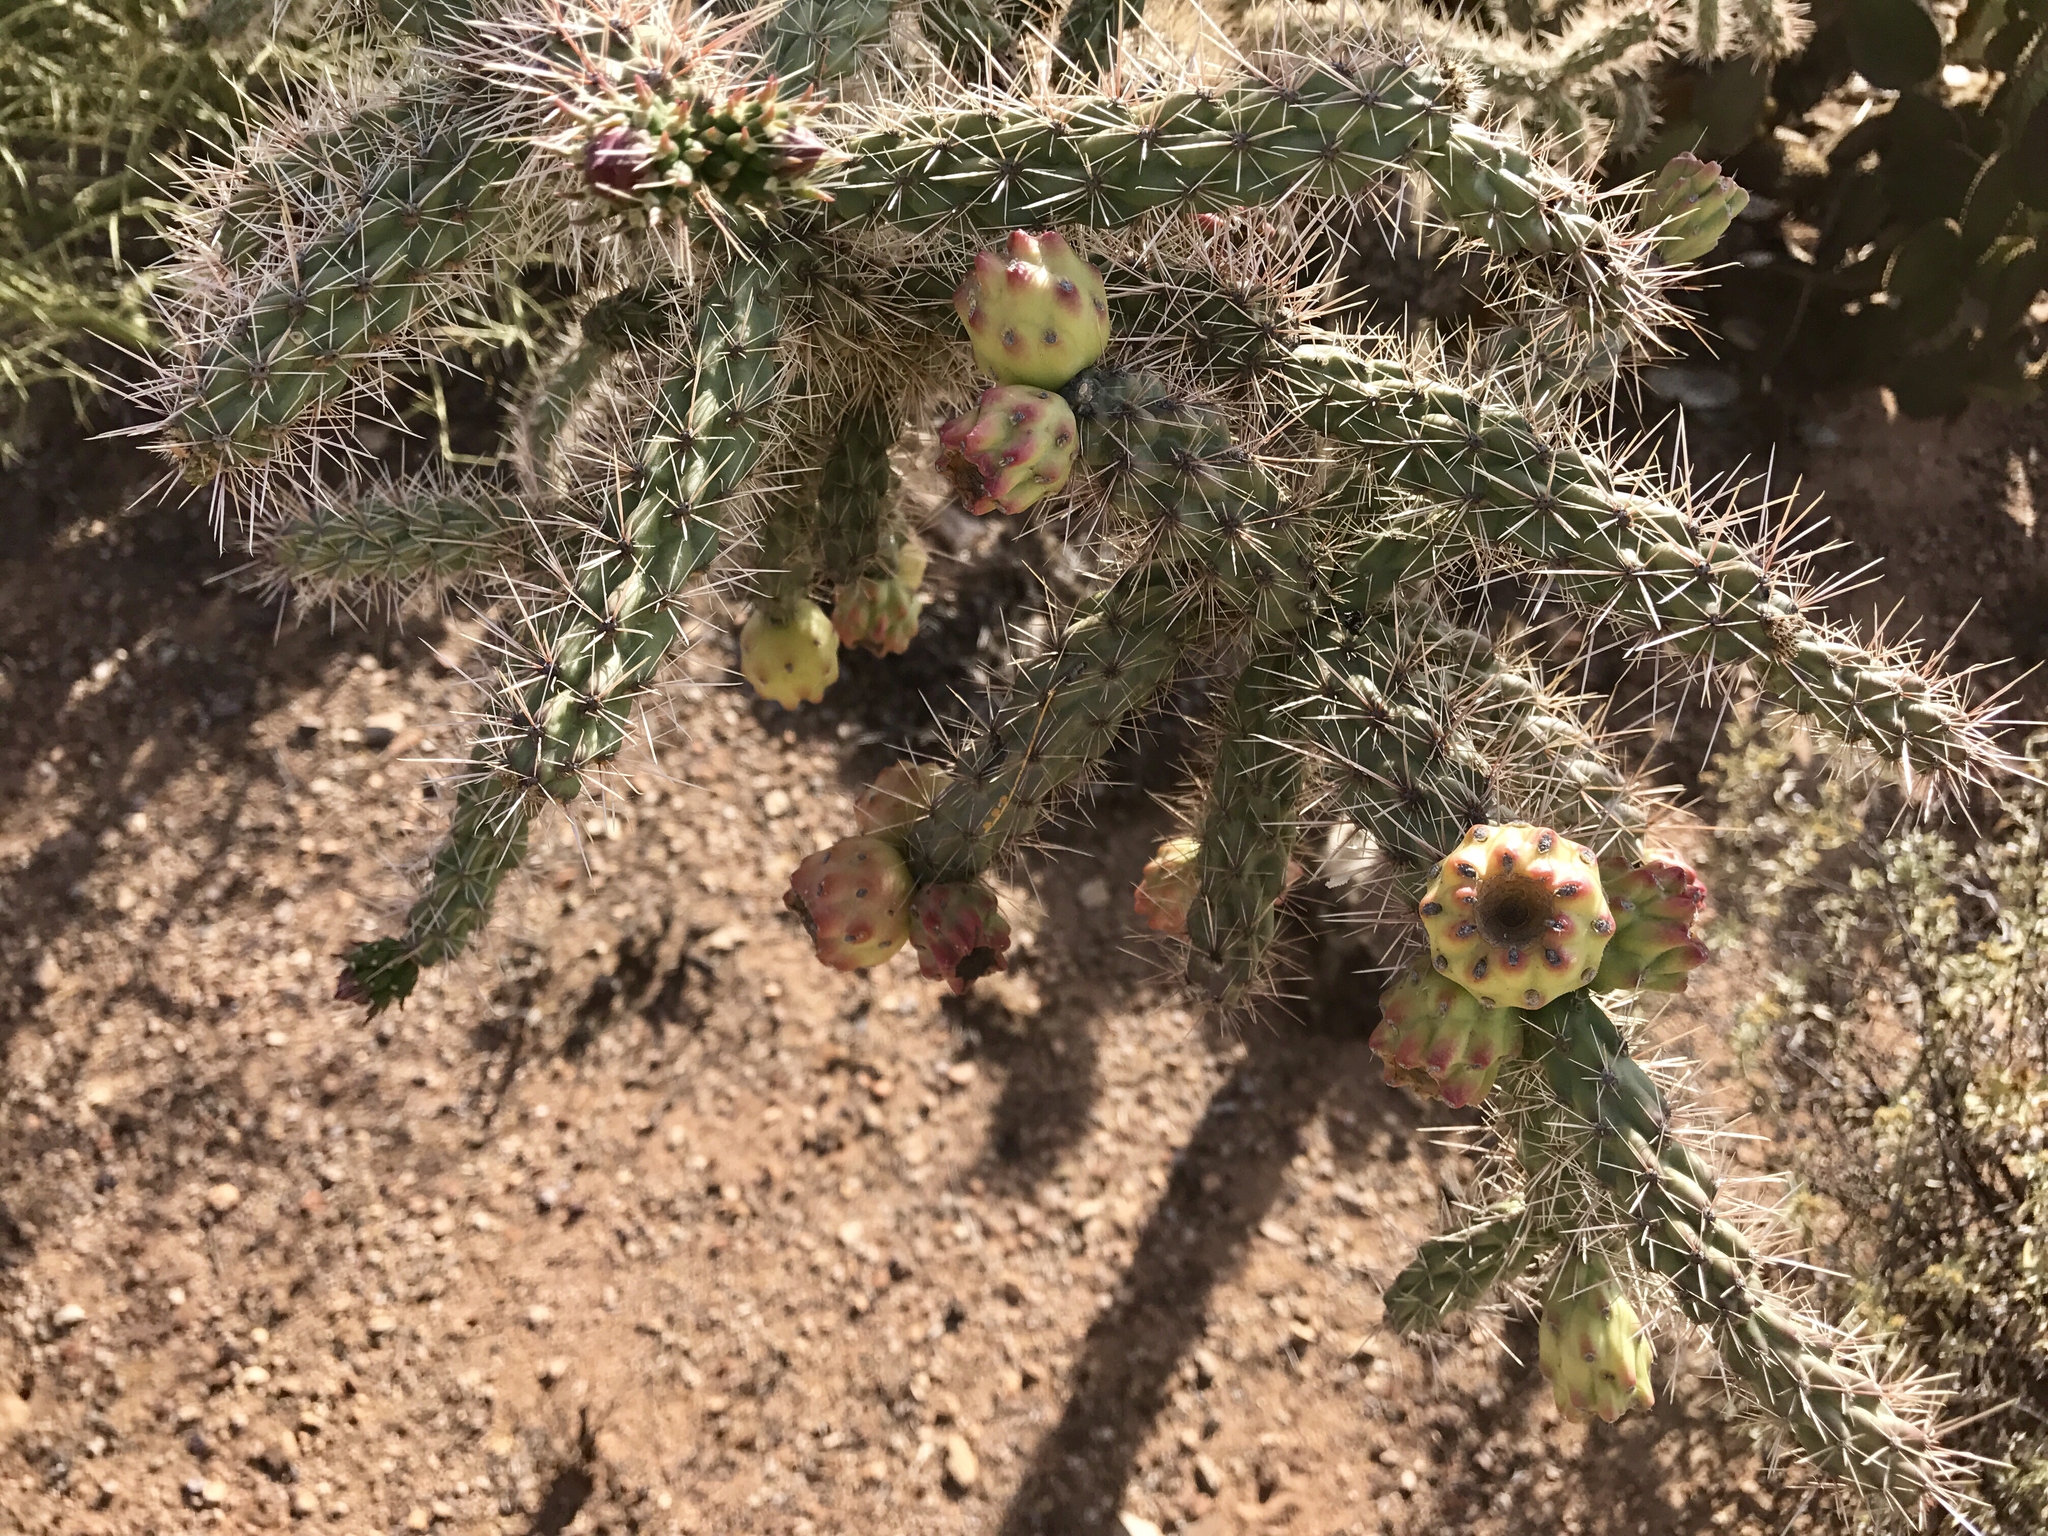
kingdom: Plantae
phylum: Tracheophyta
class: Magnoliopsida
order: Caryophyllales
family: Cactaceae
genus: Cylindropuntia
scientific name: Cylindropuntia imbricata
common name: Candelabrum cactus
